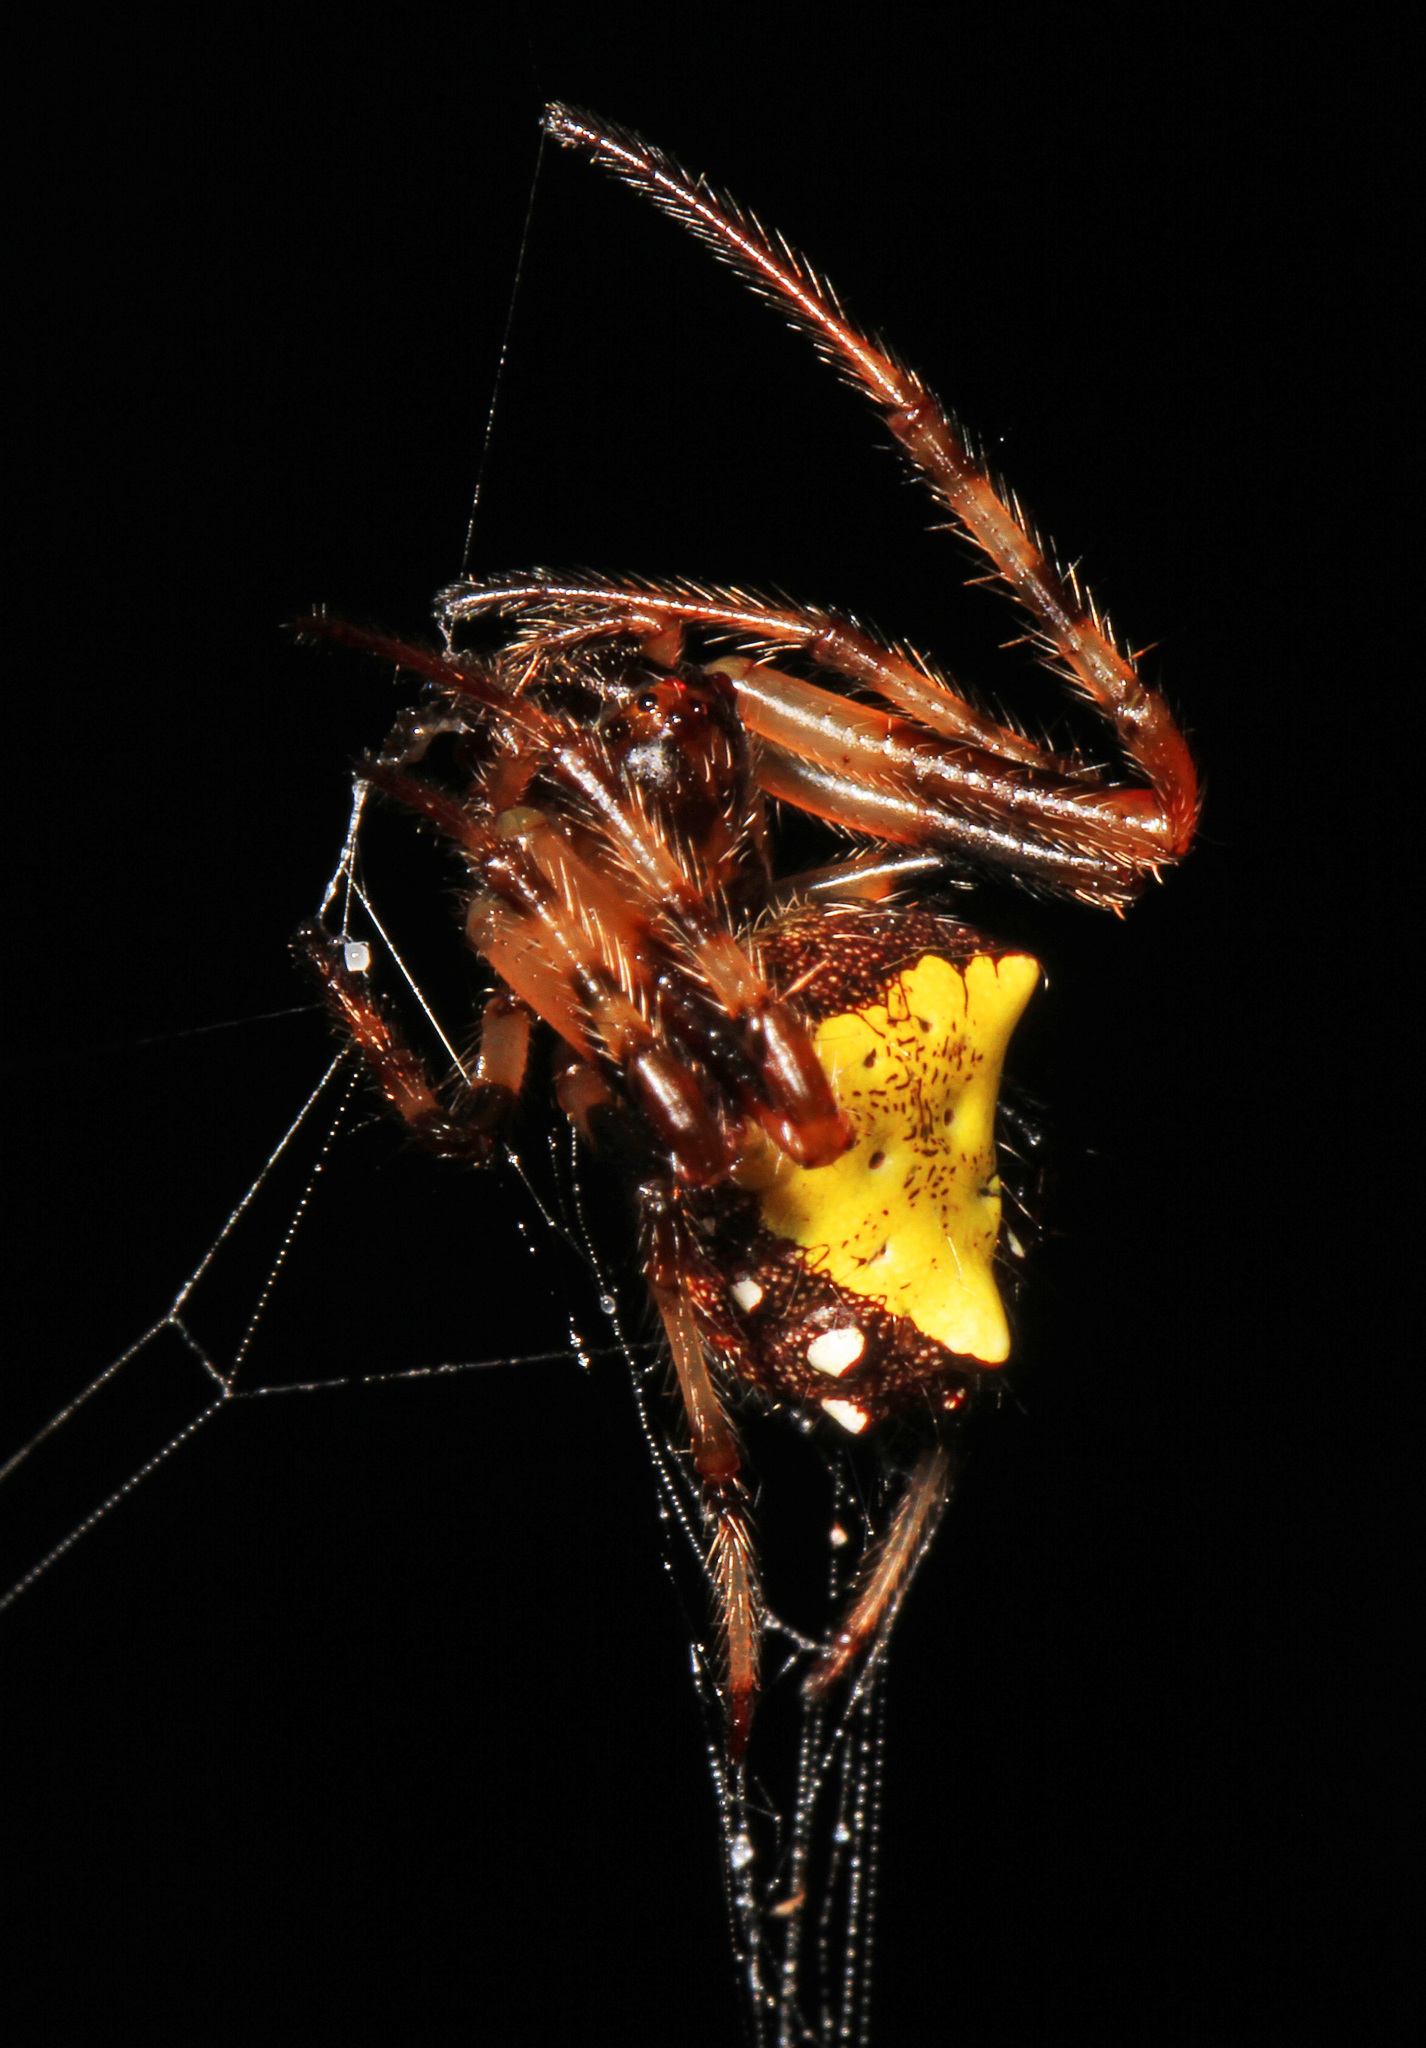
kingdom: Animalia
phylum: Arthropoda
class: Arachnida
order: Araneae
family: Araneidae
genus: Verrucosa
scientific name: Verrucosa arenata
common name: Orb weavers
